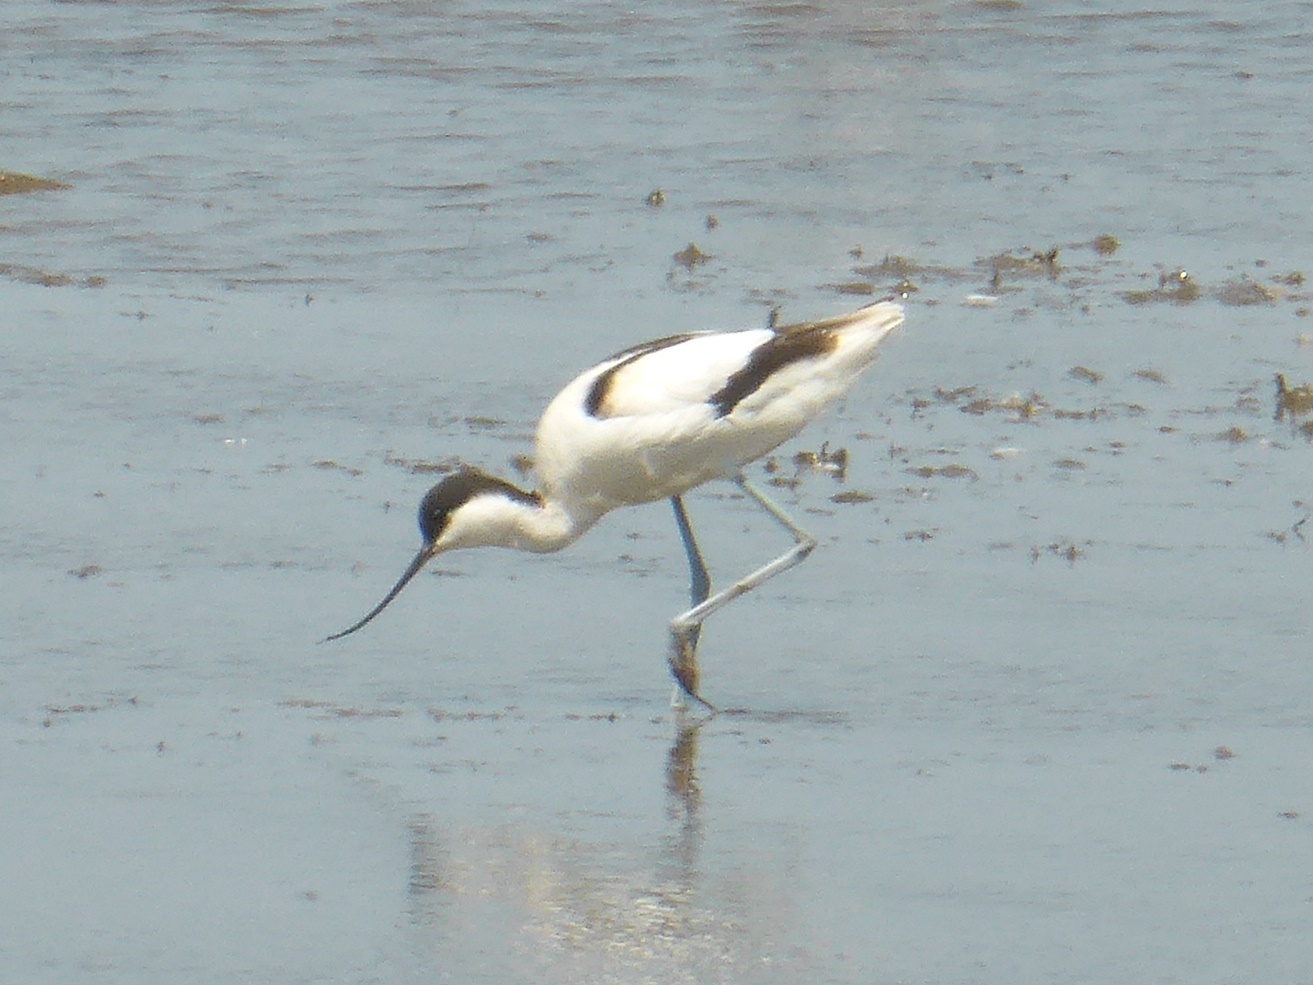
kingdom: Animalia
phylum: Chordata
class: Aves
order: Charadriiformes
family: Recurvirostridae
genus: Recurvirostra
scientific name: Recurvirostra avosetta
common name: Pied avocet
